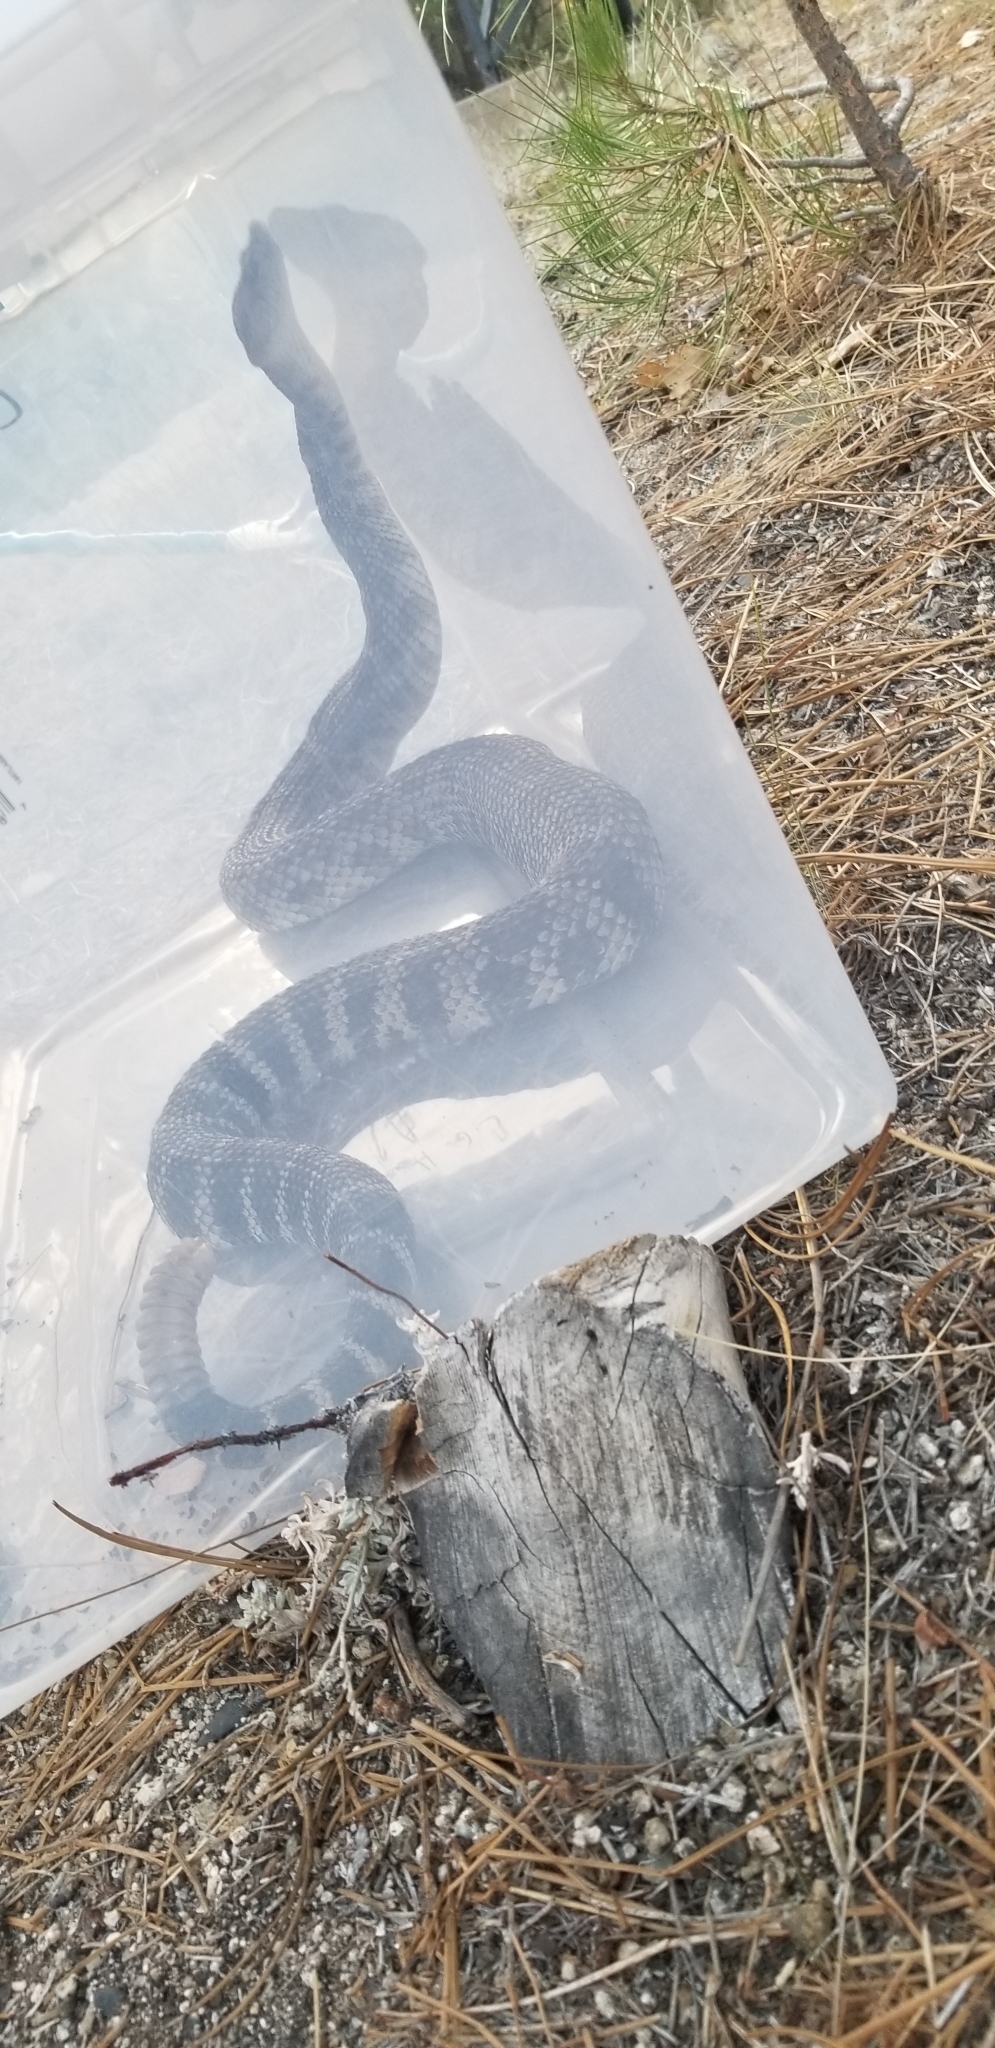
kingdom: Animalia
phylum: Chordata
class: Squamata
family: Viperidae
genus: Crotalus
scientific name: Crotalus oreganus
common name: Abyssus
